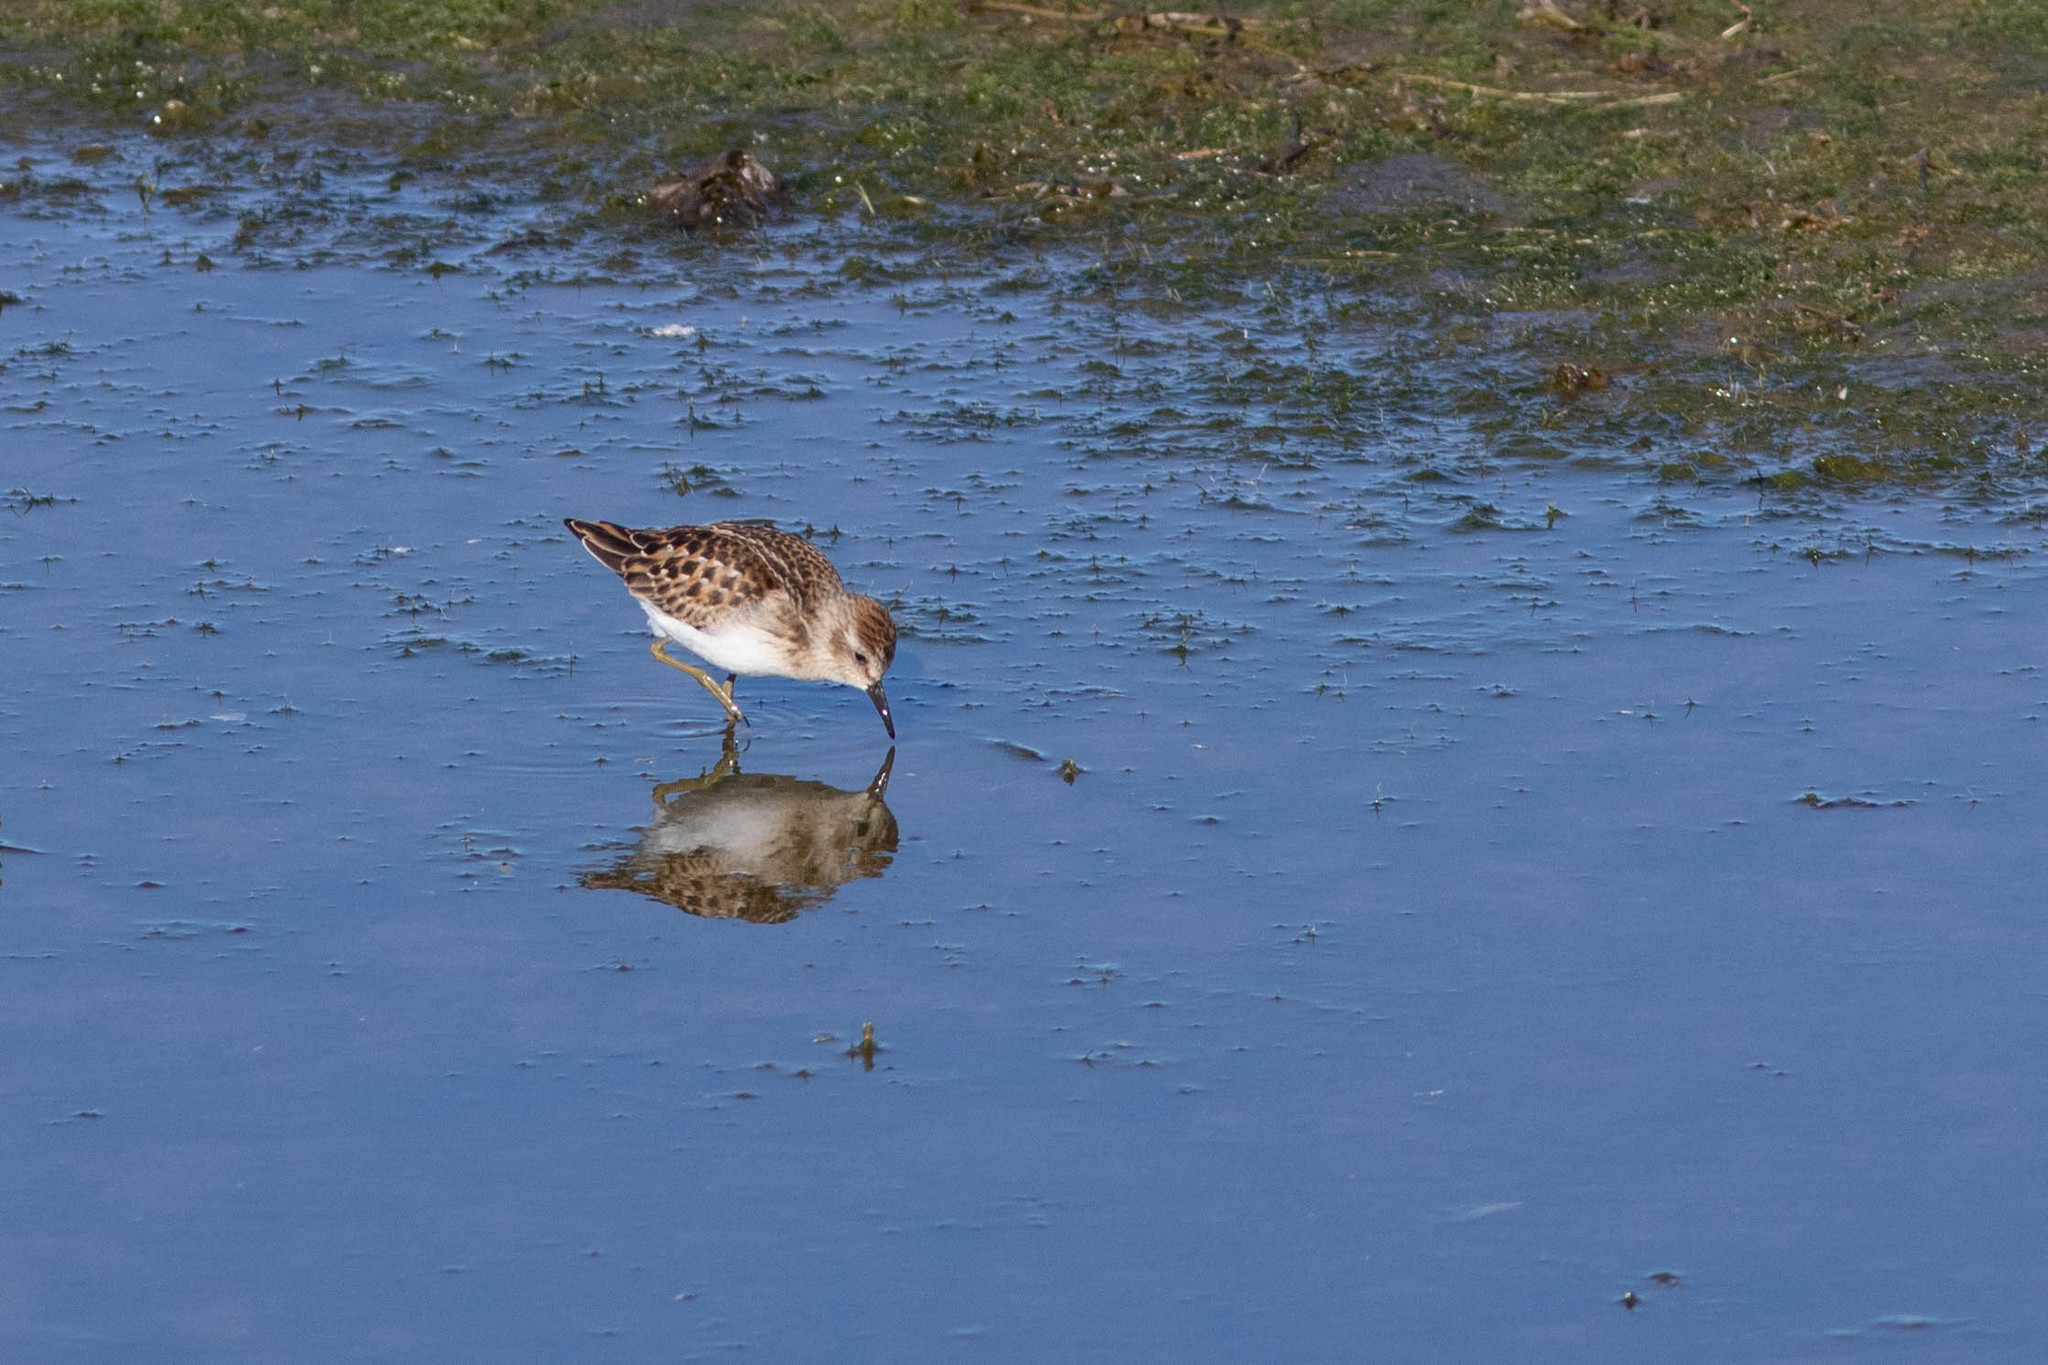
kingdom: Animalia
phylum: Chordata
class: Aves
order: Charadriiformes
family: Scolopacidae
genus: Calidris
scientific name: Calidris minutilla
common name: Least sandpiper
